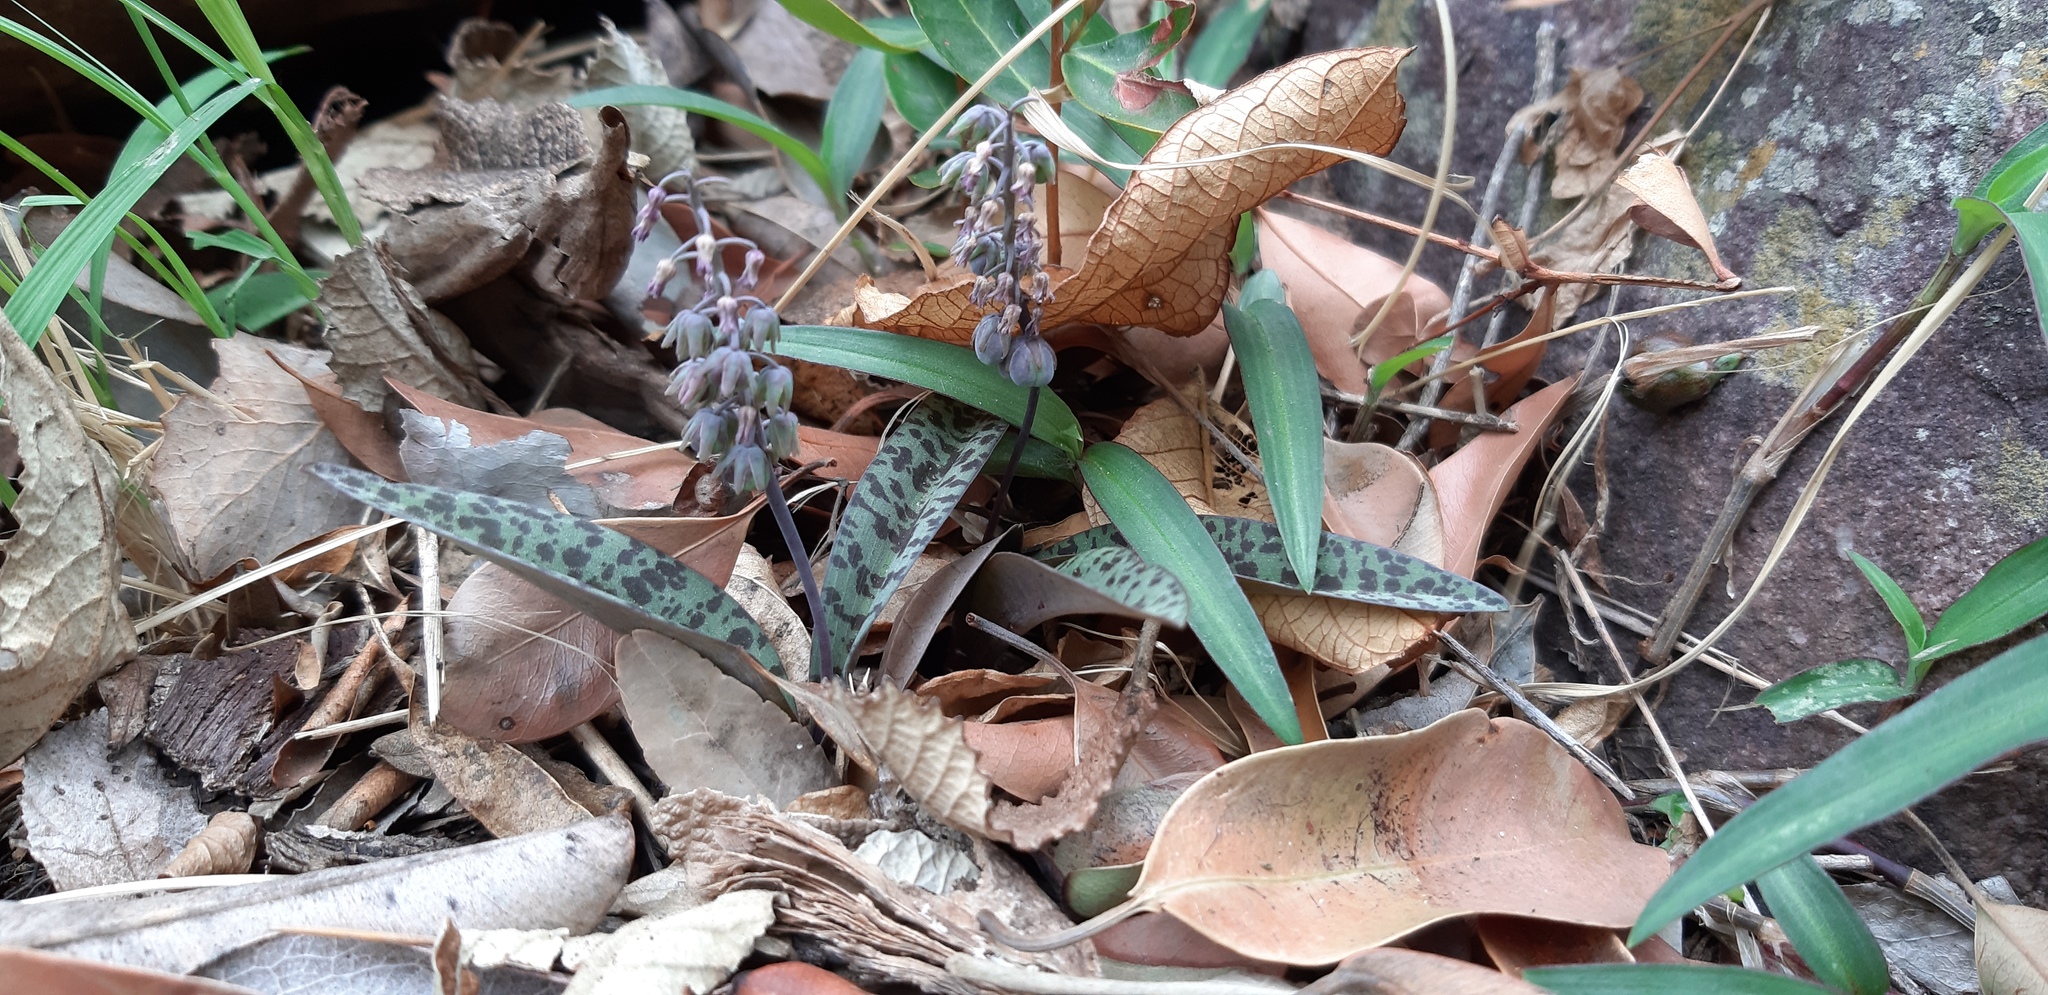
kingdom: Plantae
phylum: Tracheophyta
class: Liliopsida
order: Asparagales
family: Asparagaceae
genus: Ledebouria
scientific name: Ledebouria caesiomontana
